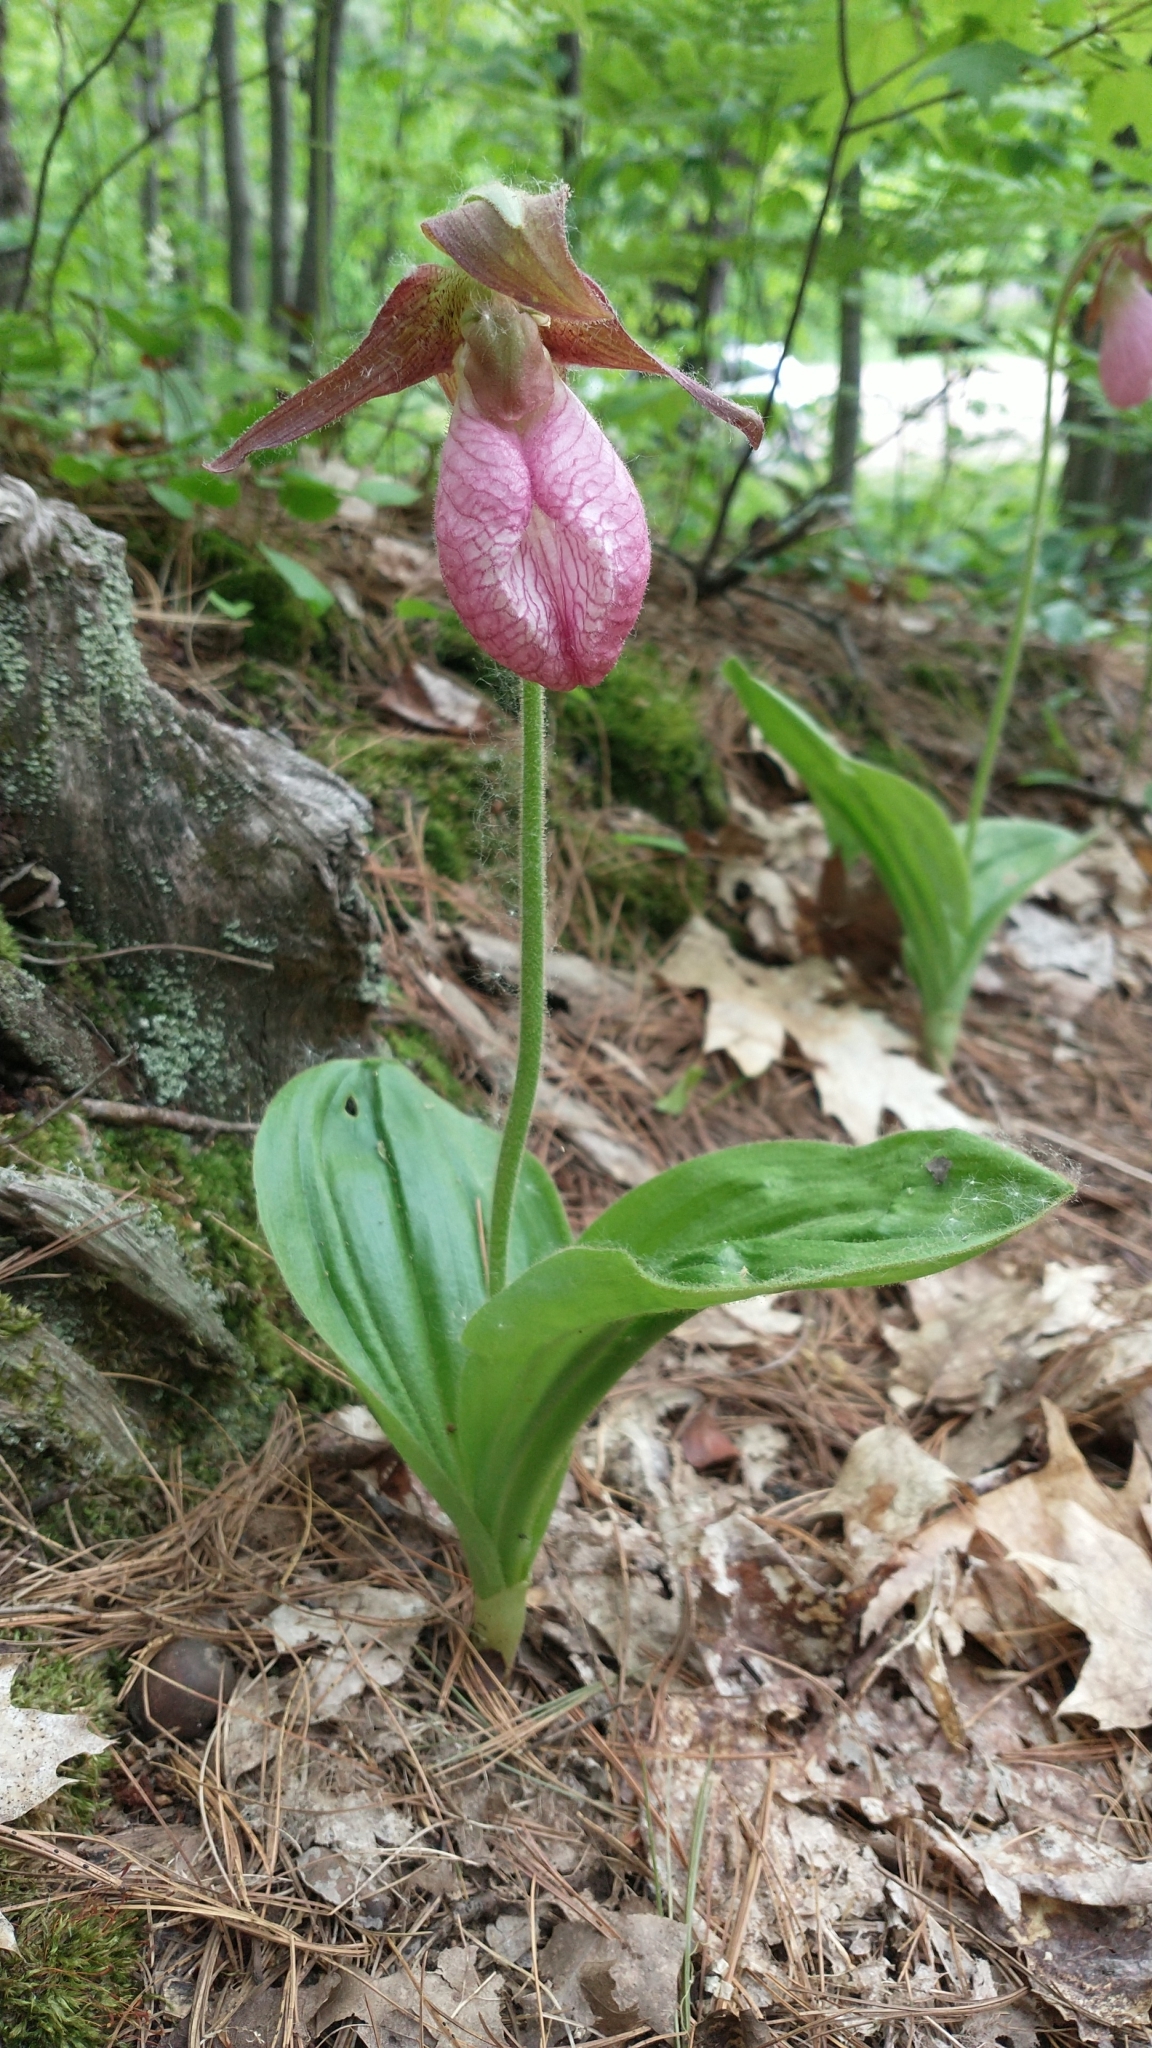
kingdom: Plantae
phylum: Tracheophyta
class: Liliopsida
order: Asparagales
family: Orchidaceae
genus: Cypripedium
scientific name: Cypripedium acaule
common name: Pink lady's-slipper
